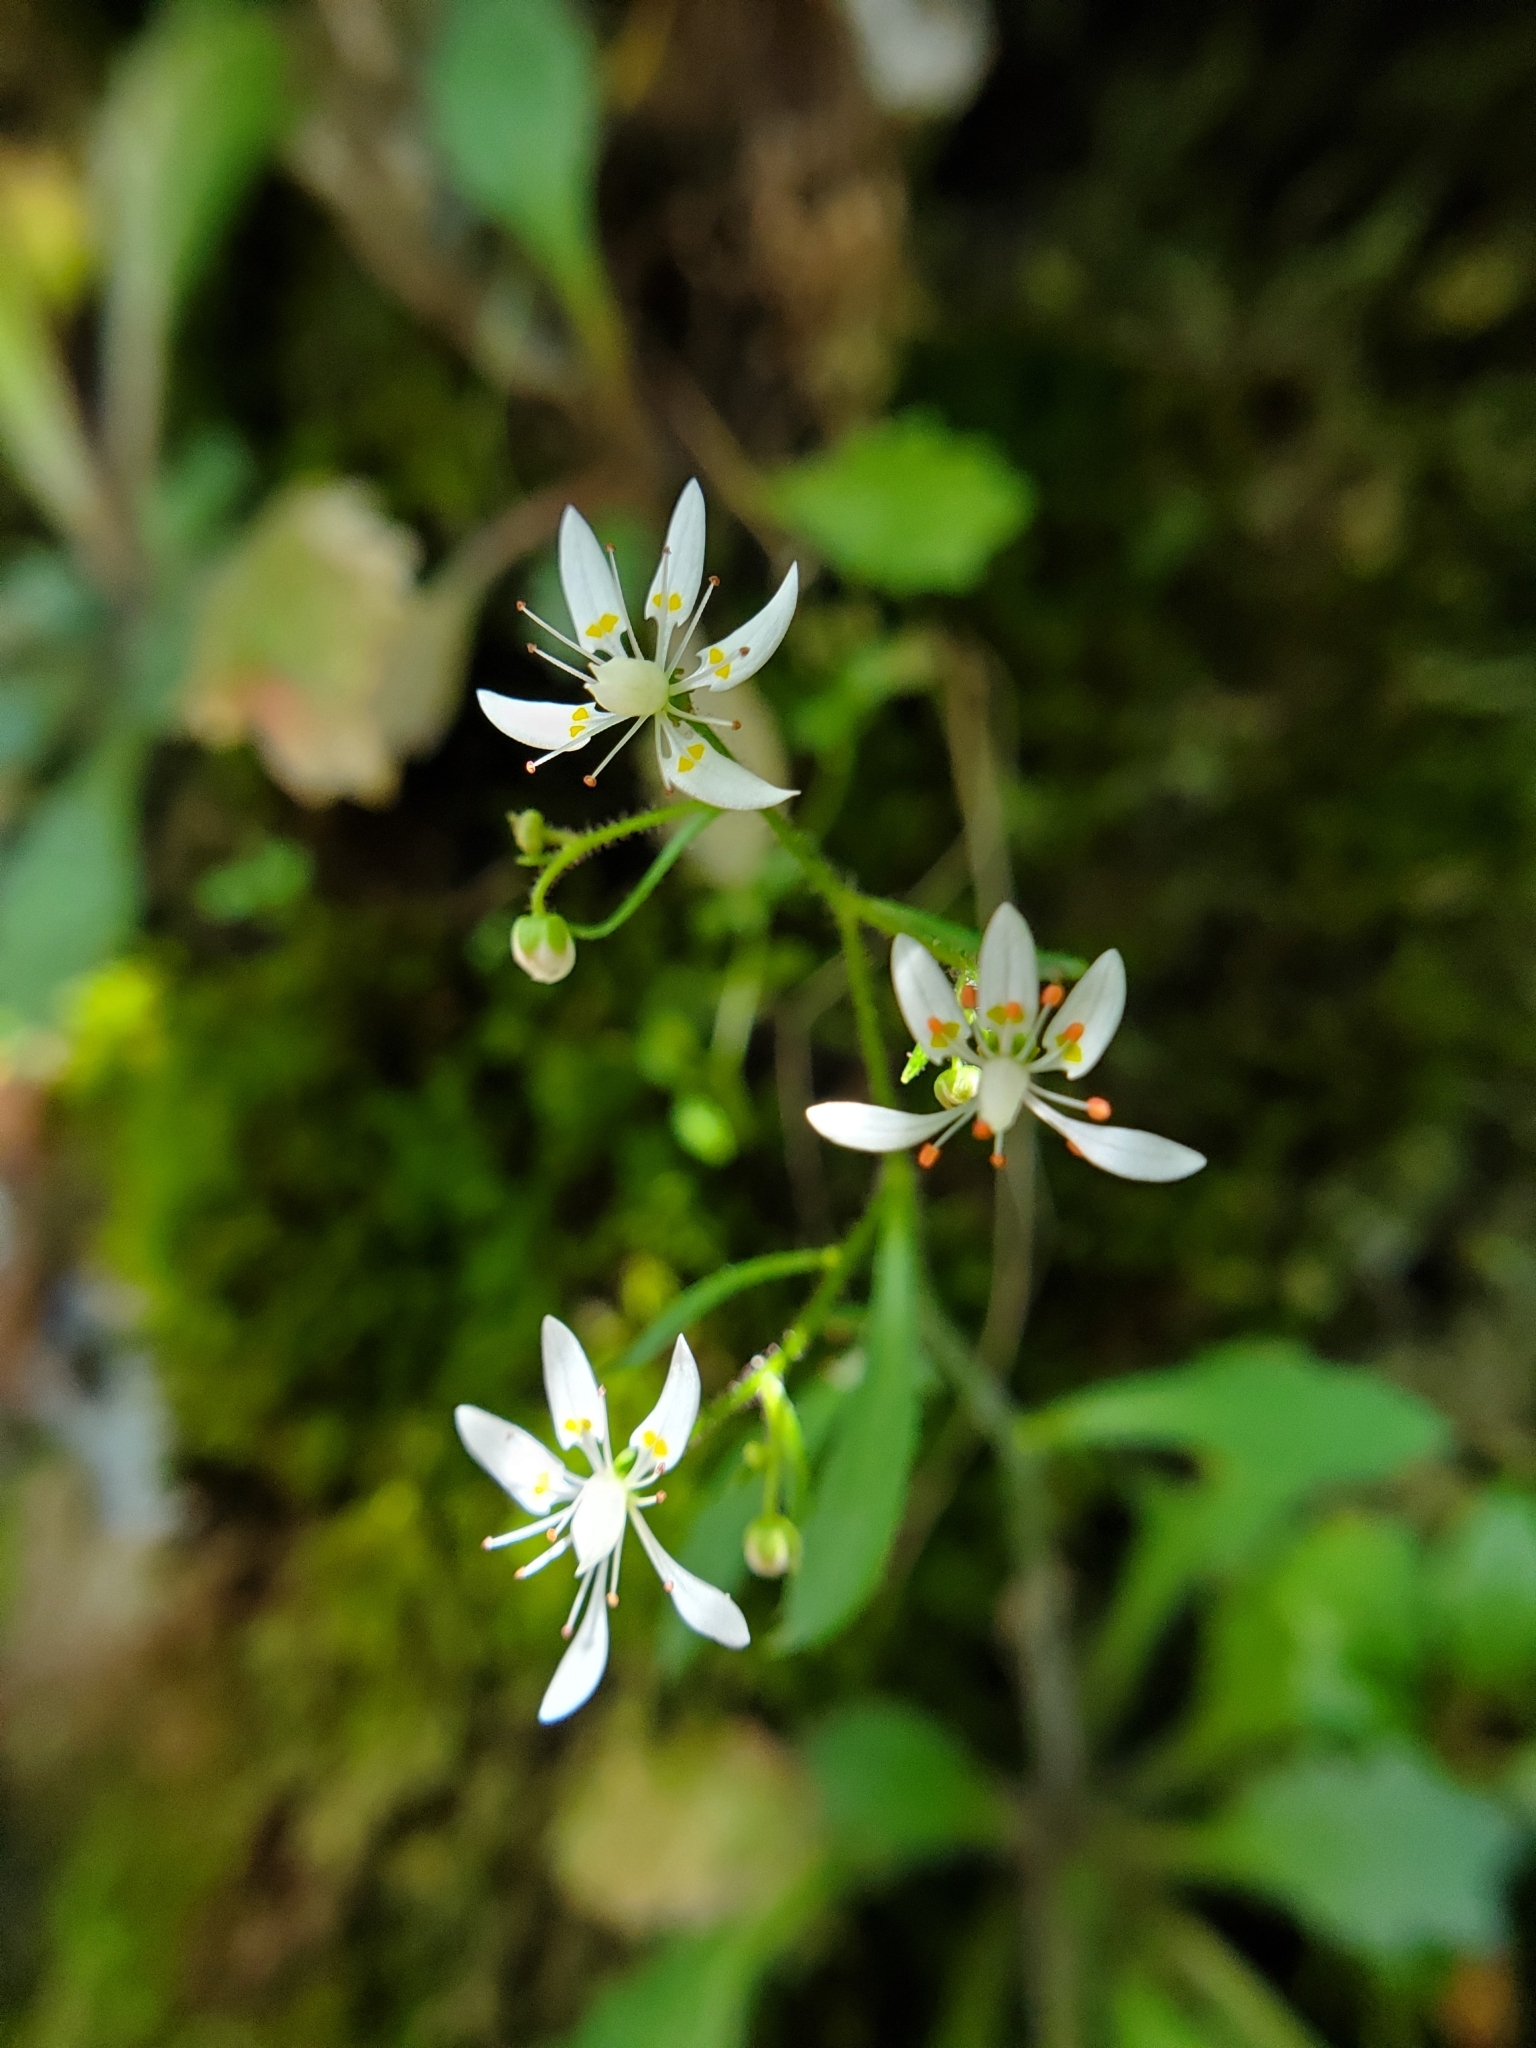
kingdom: Plantae
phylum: Tracheophyta
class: Magnoliopsida
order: Saxifragales
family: Saxifragaceae
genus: Micranthes
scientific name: Micranthes petiolaris
